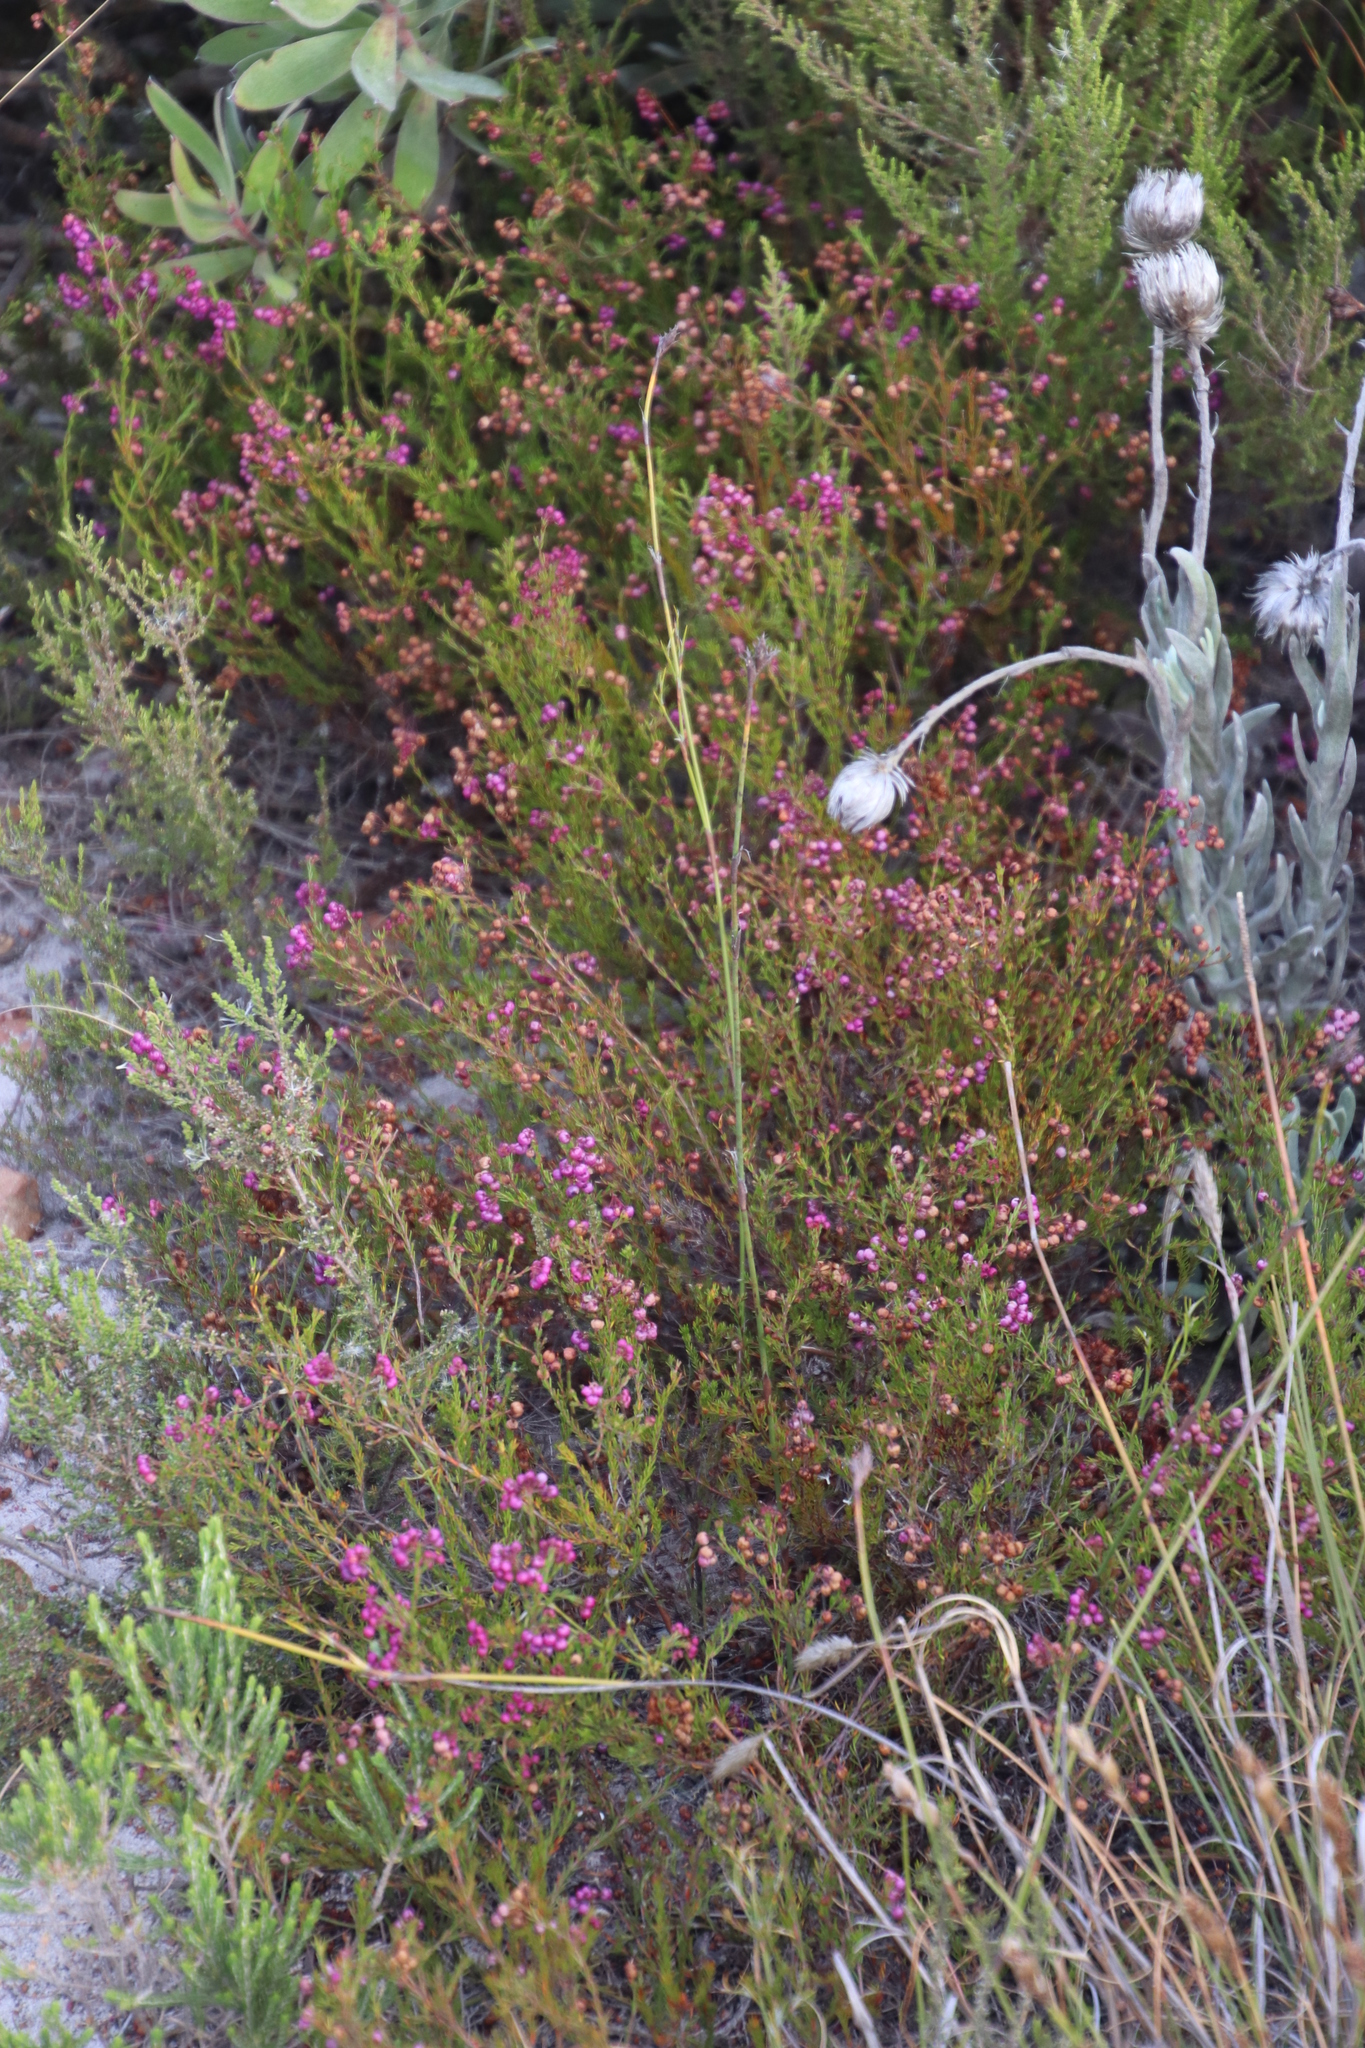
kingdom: Plantae
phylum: Tracheophyta
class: Magnoliopsida
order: Ericales
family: Ericaceae
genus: Erica
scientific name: Erica multumbellifera
